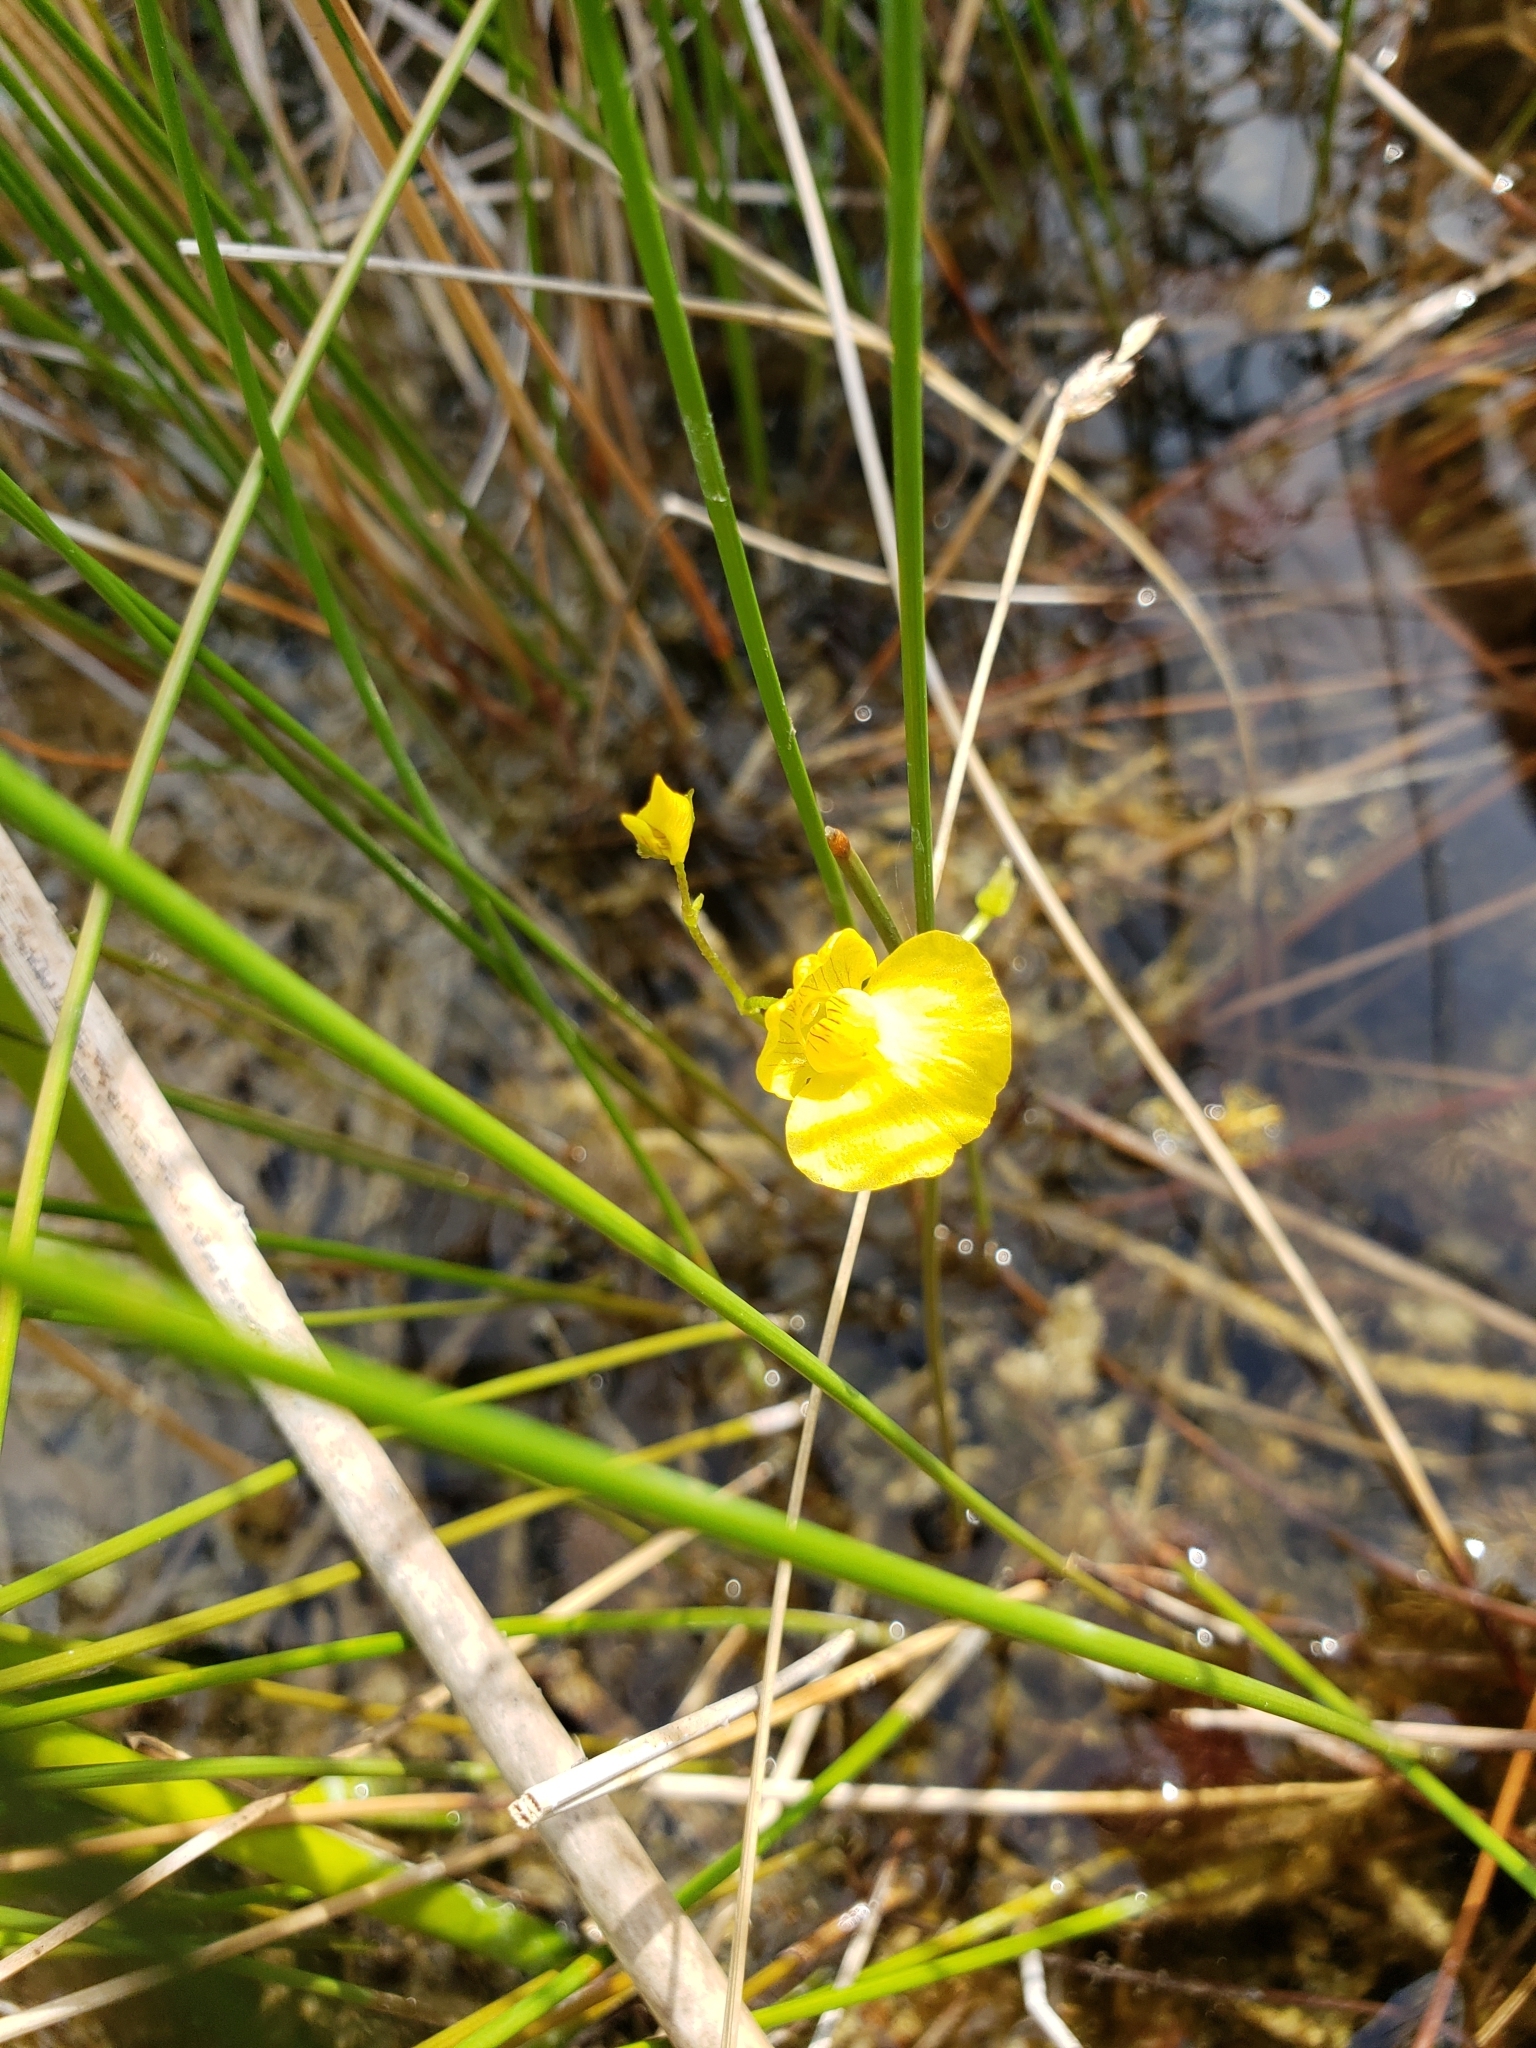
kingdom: Plantae
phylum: Tracheophyta
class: Magnoliopsida
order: Lamiales
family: Lentibulariaceae
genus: Utricularia
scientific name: Utricularia gibba
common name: Humped bladderwort
